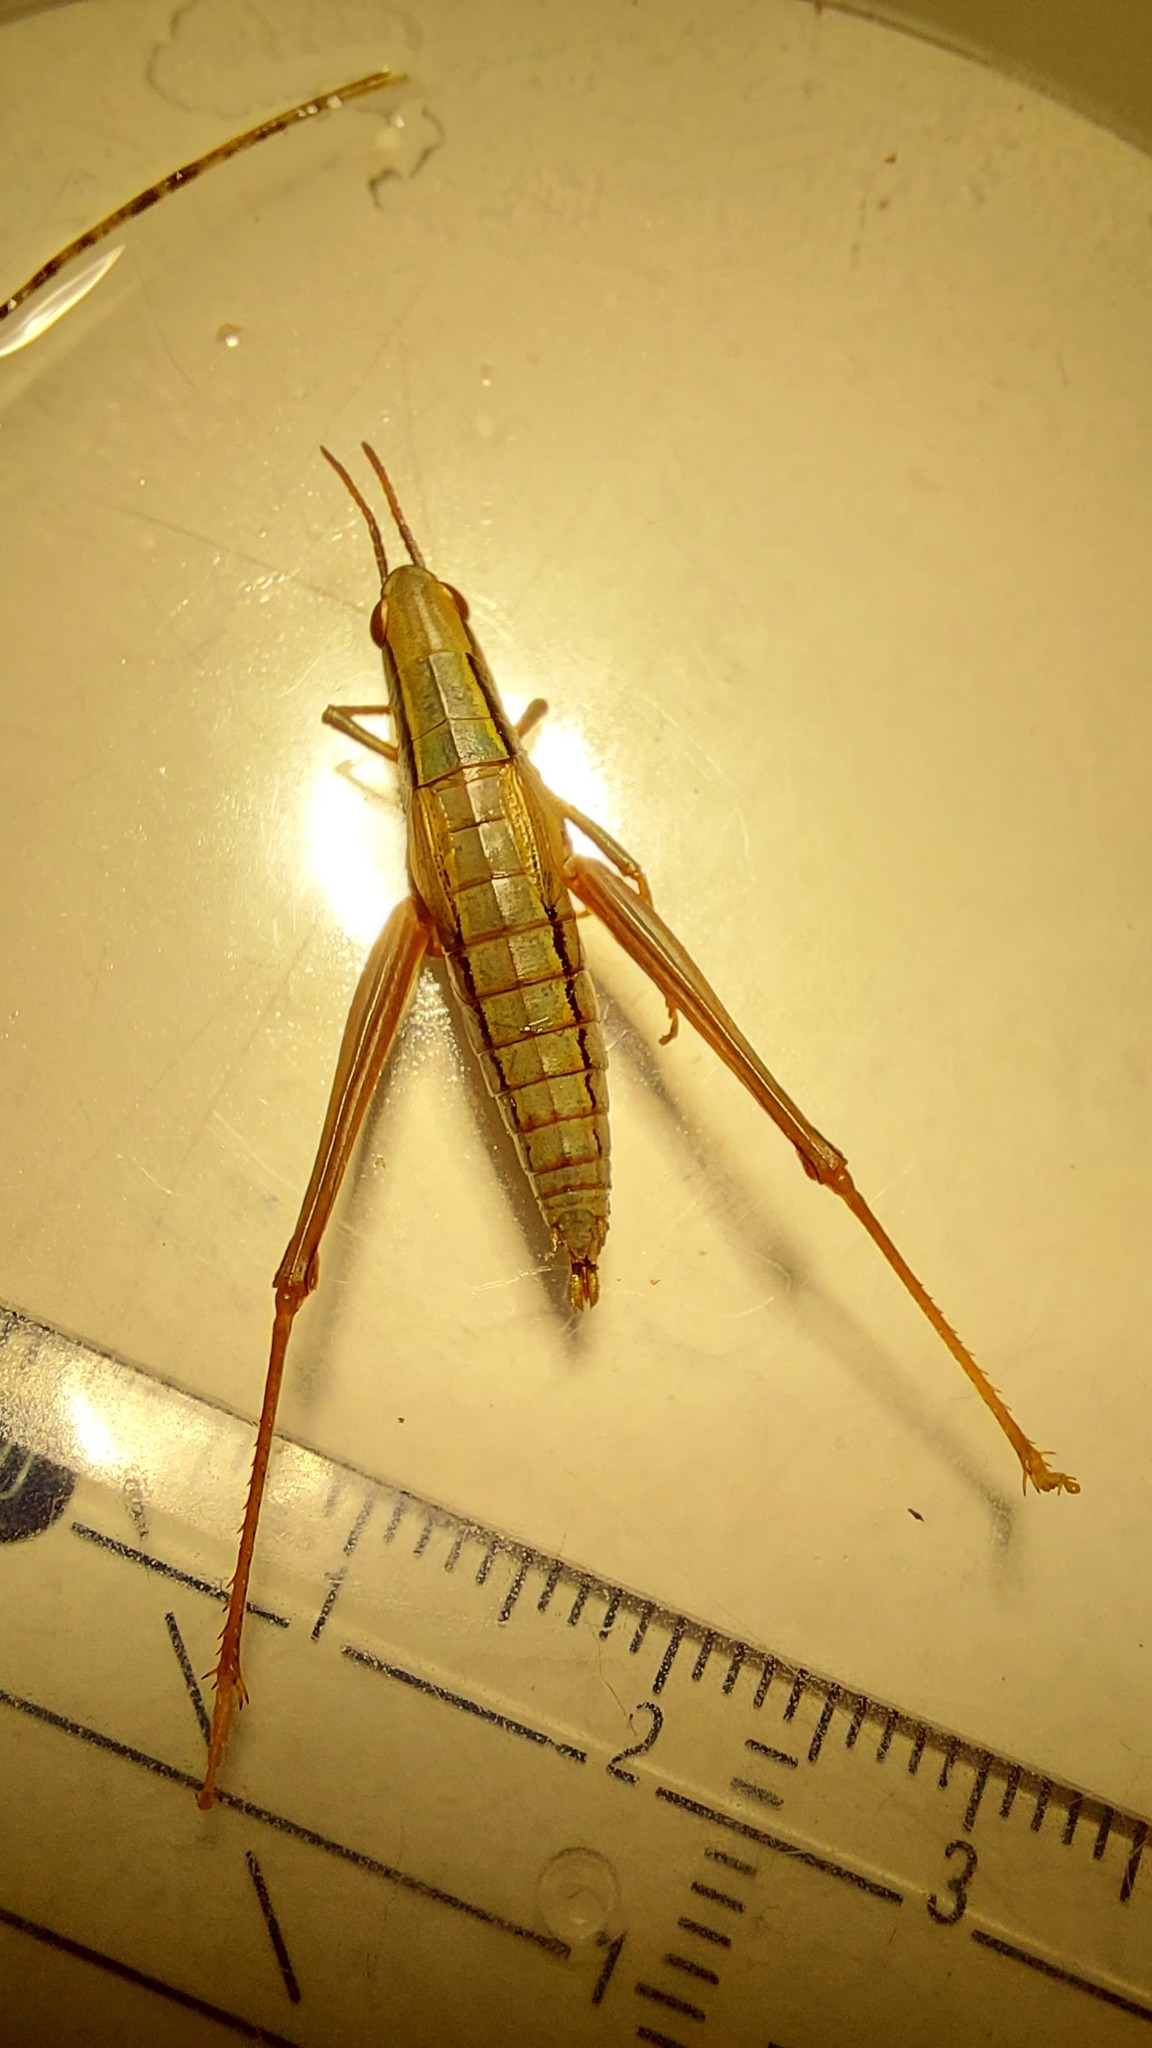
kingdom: Animalia
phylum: Arthropoda
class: Insecta
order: Orthoptera
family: Acrididae
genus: Euthystira
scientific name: Euthystira brachyptera
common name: Small gold grasshopper
